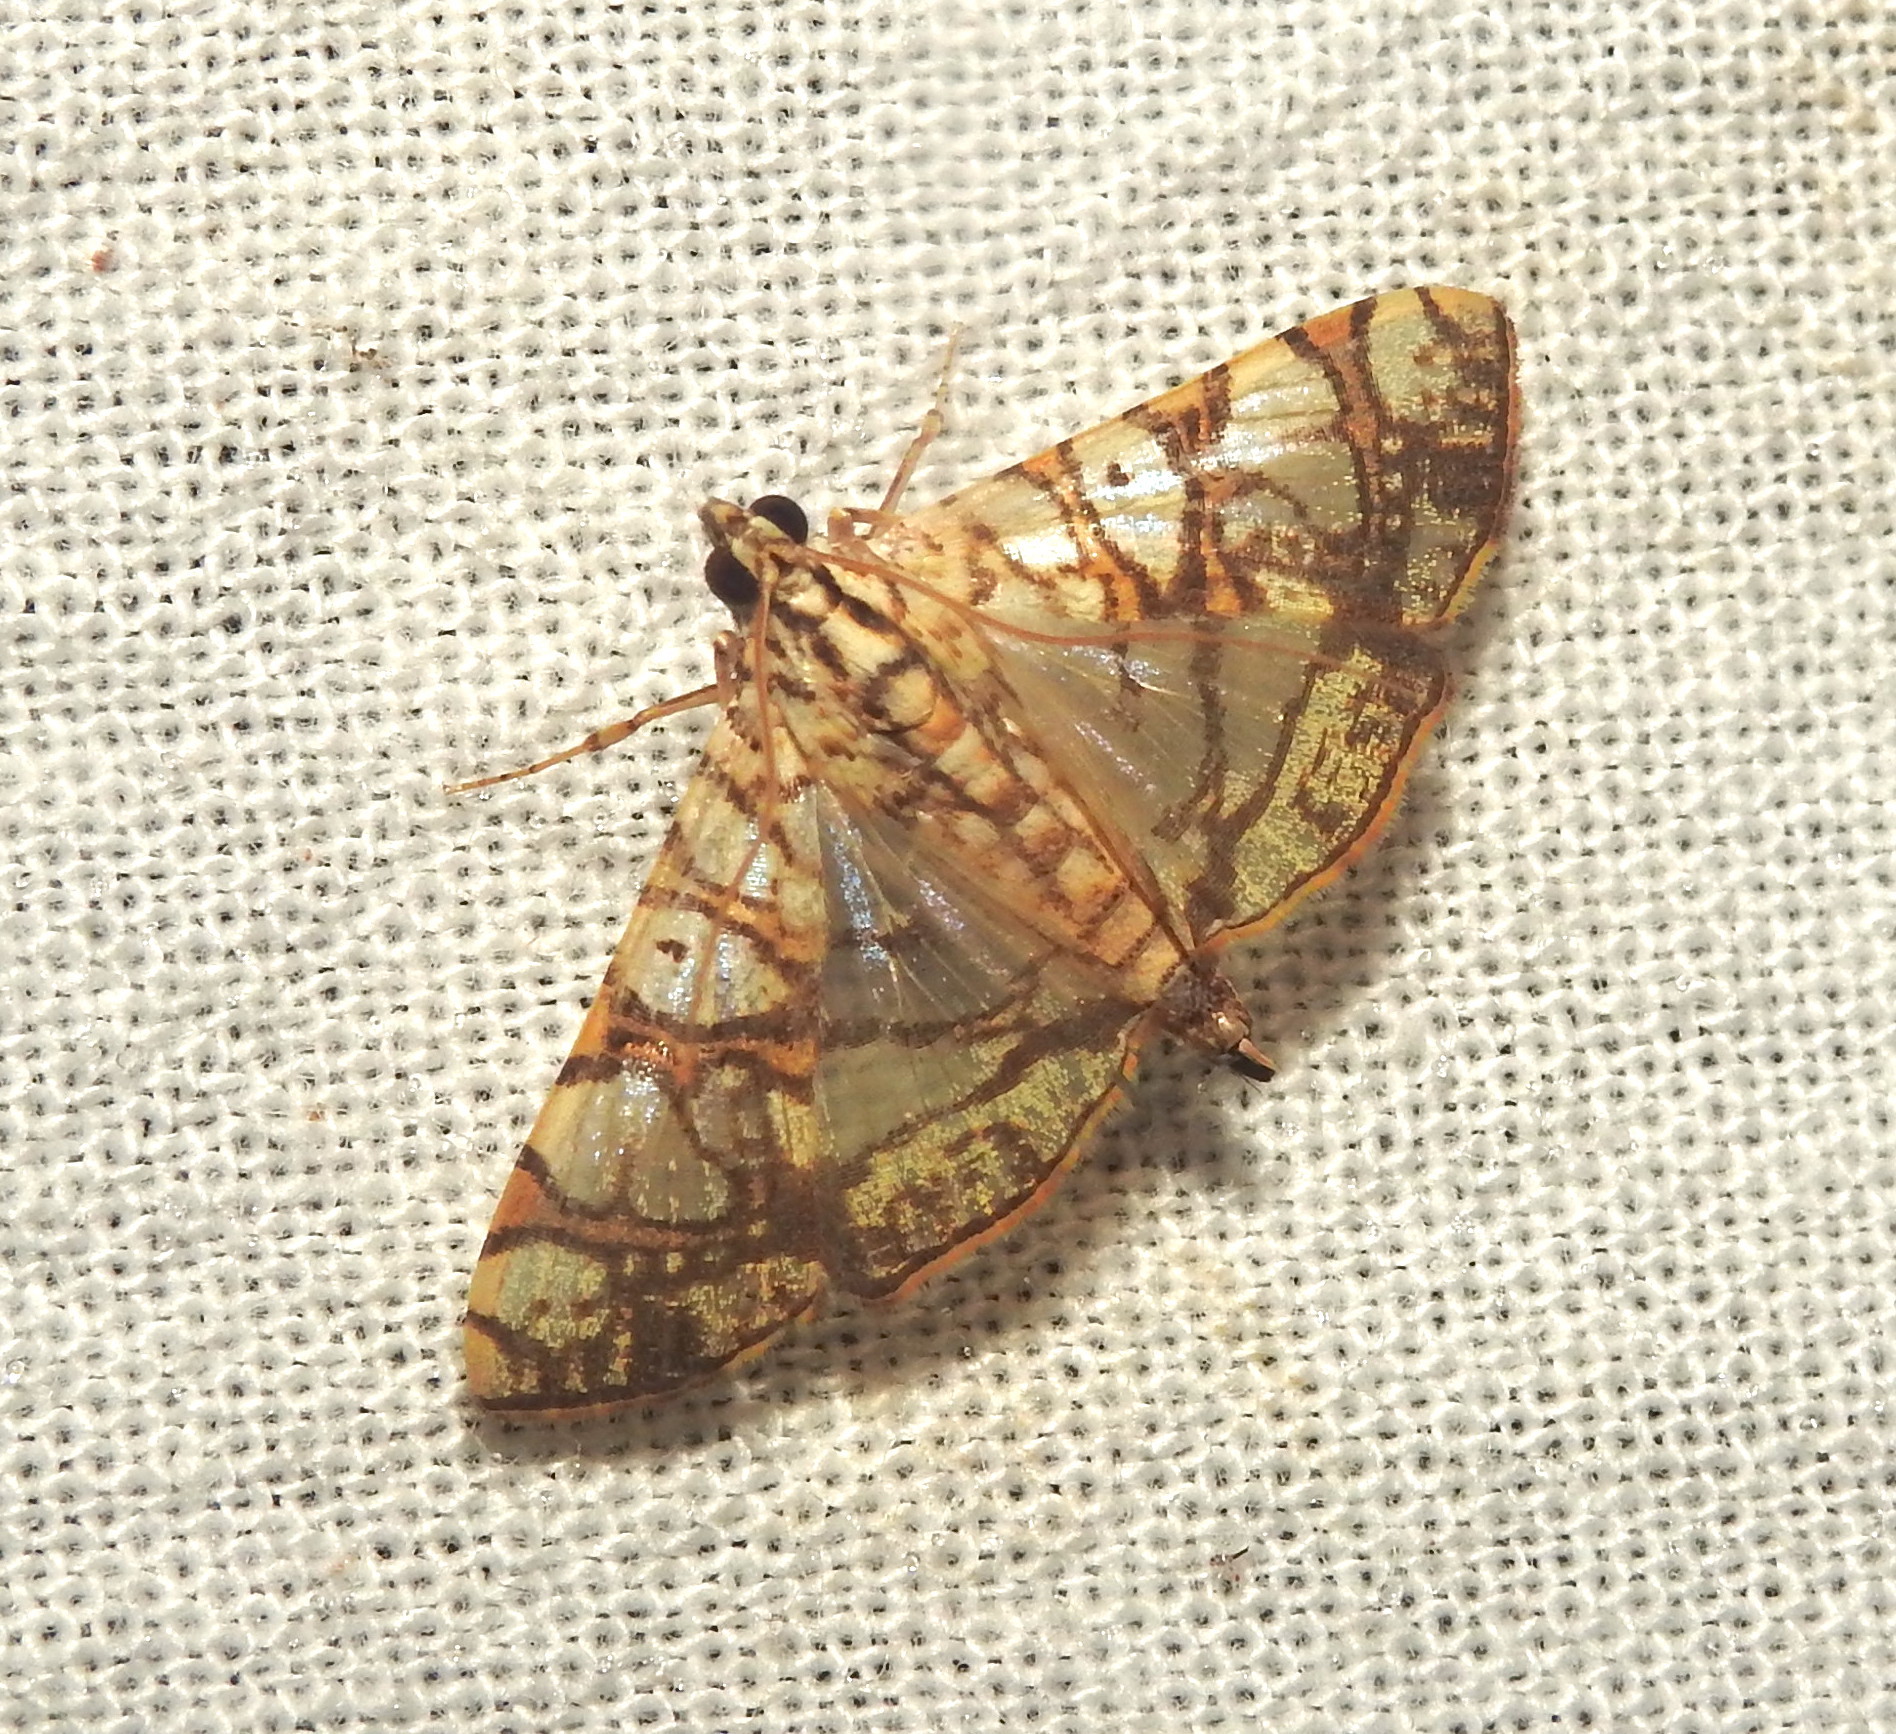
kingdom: Animalia
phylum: Arthropoda
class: Insecta
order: Lepidoptera
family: Crambidae
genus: Glyphodes
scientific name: Glyphodes caesalis
